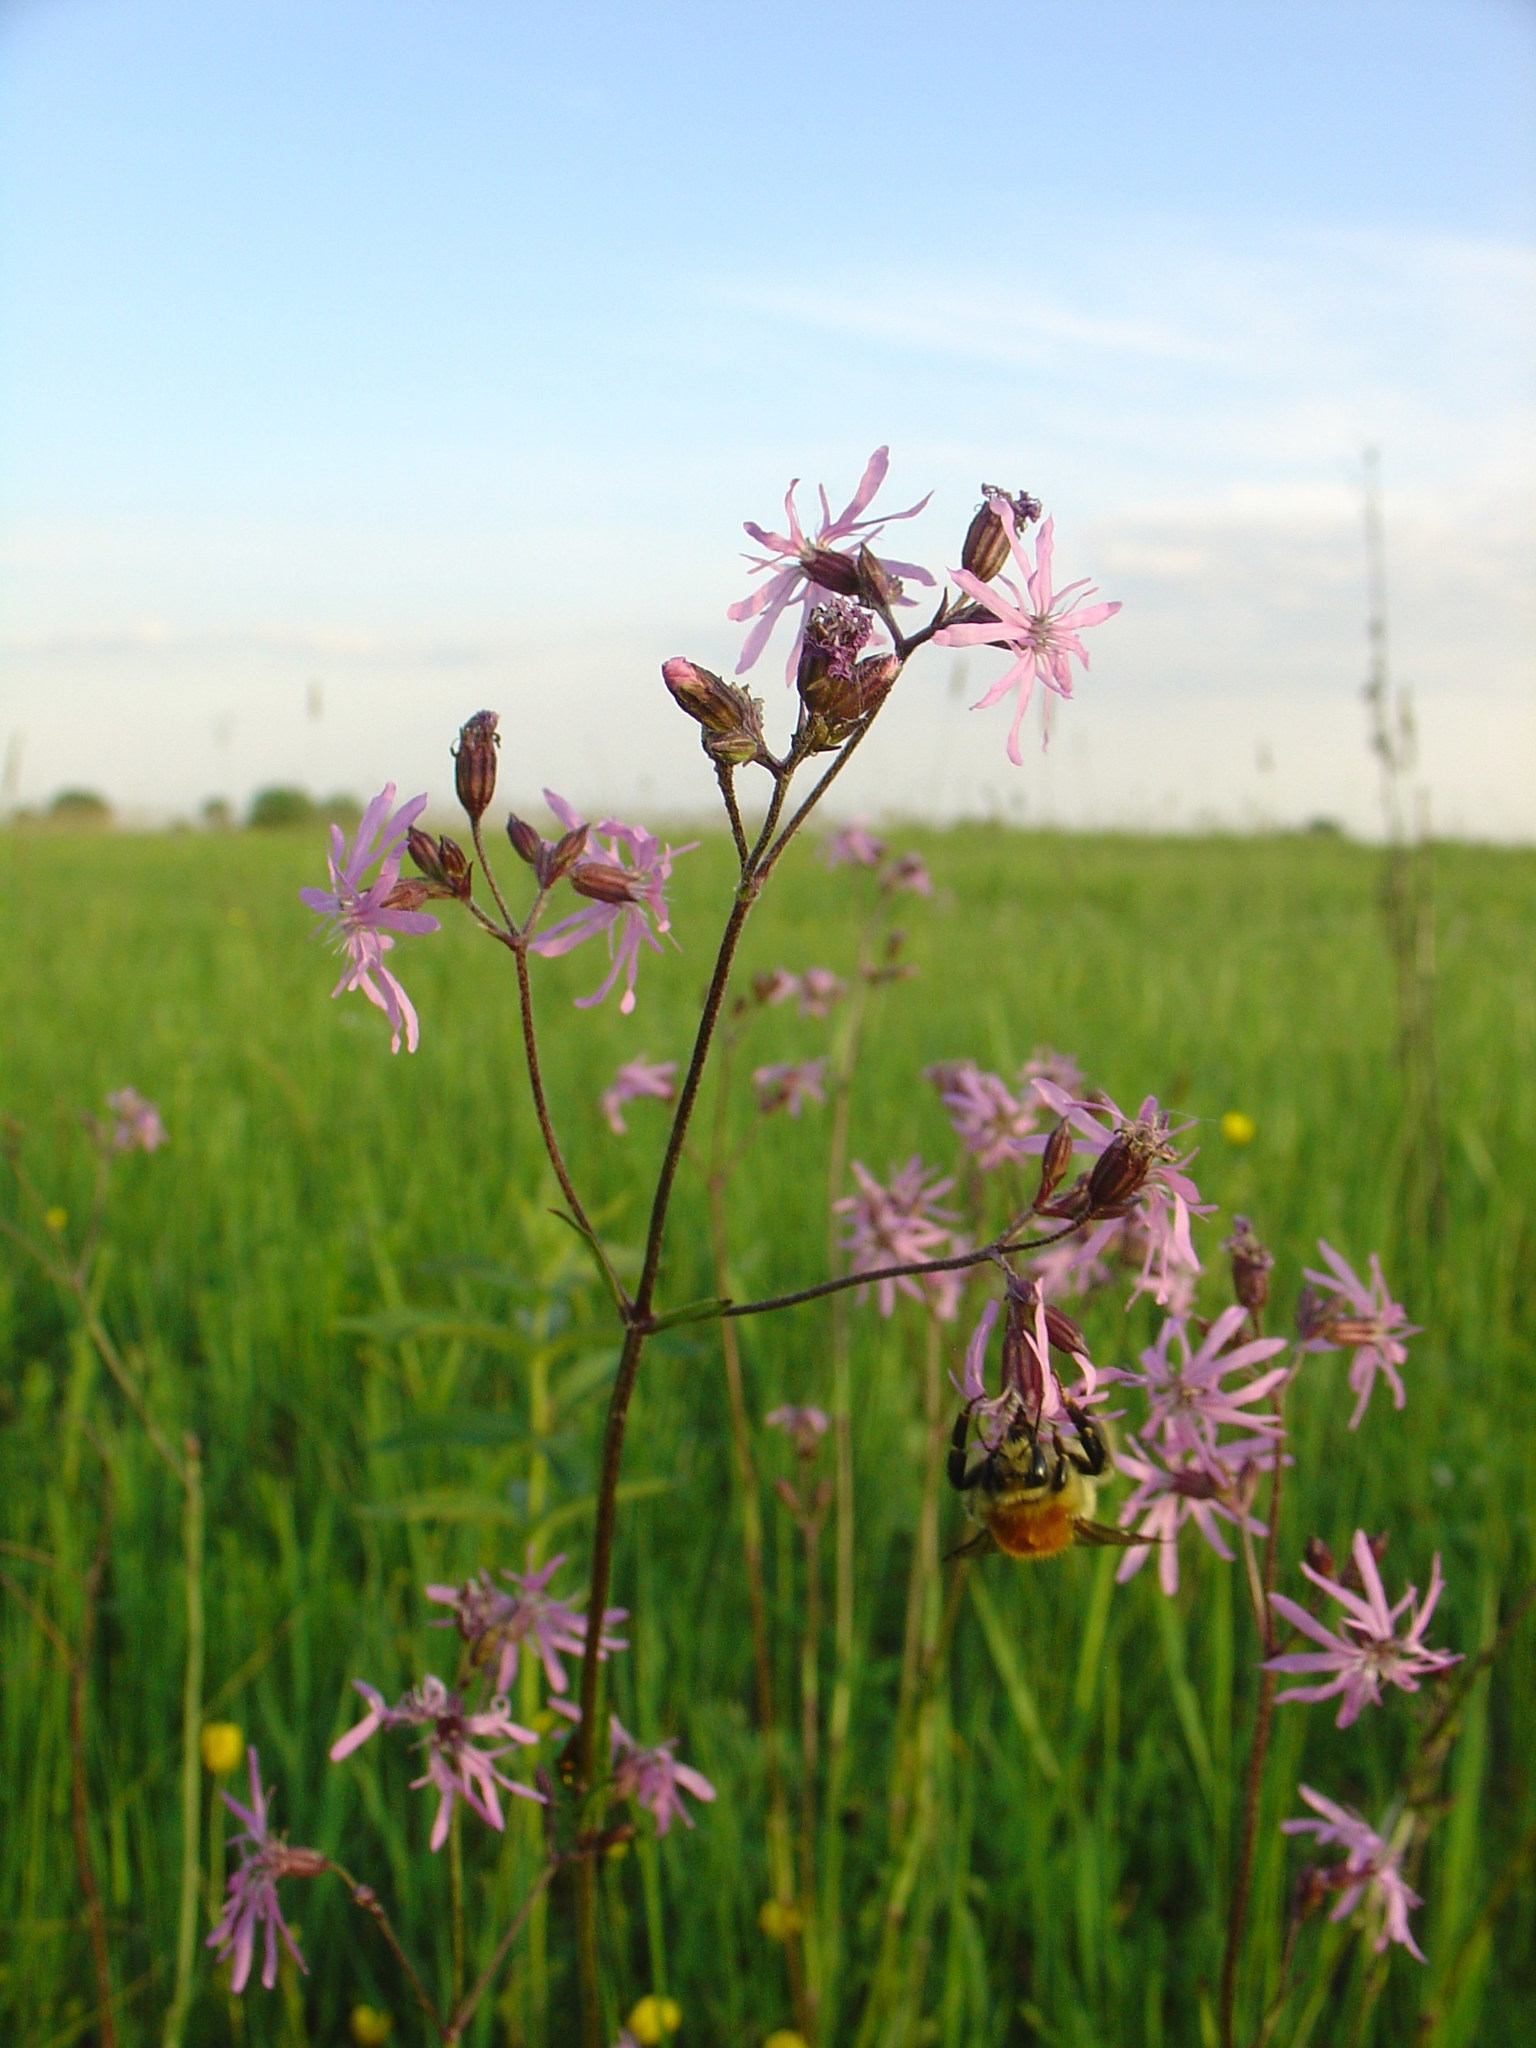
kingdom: Plantae
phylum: Tracheophyta
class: Magnoliopsida
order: Caryophyllales
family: Caryophyllaceae
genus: Silene
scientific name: Silene flos-cuculi
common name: Ragged-robin
